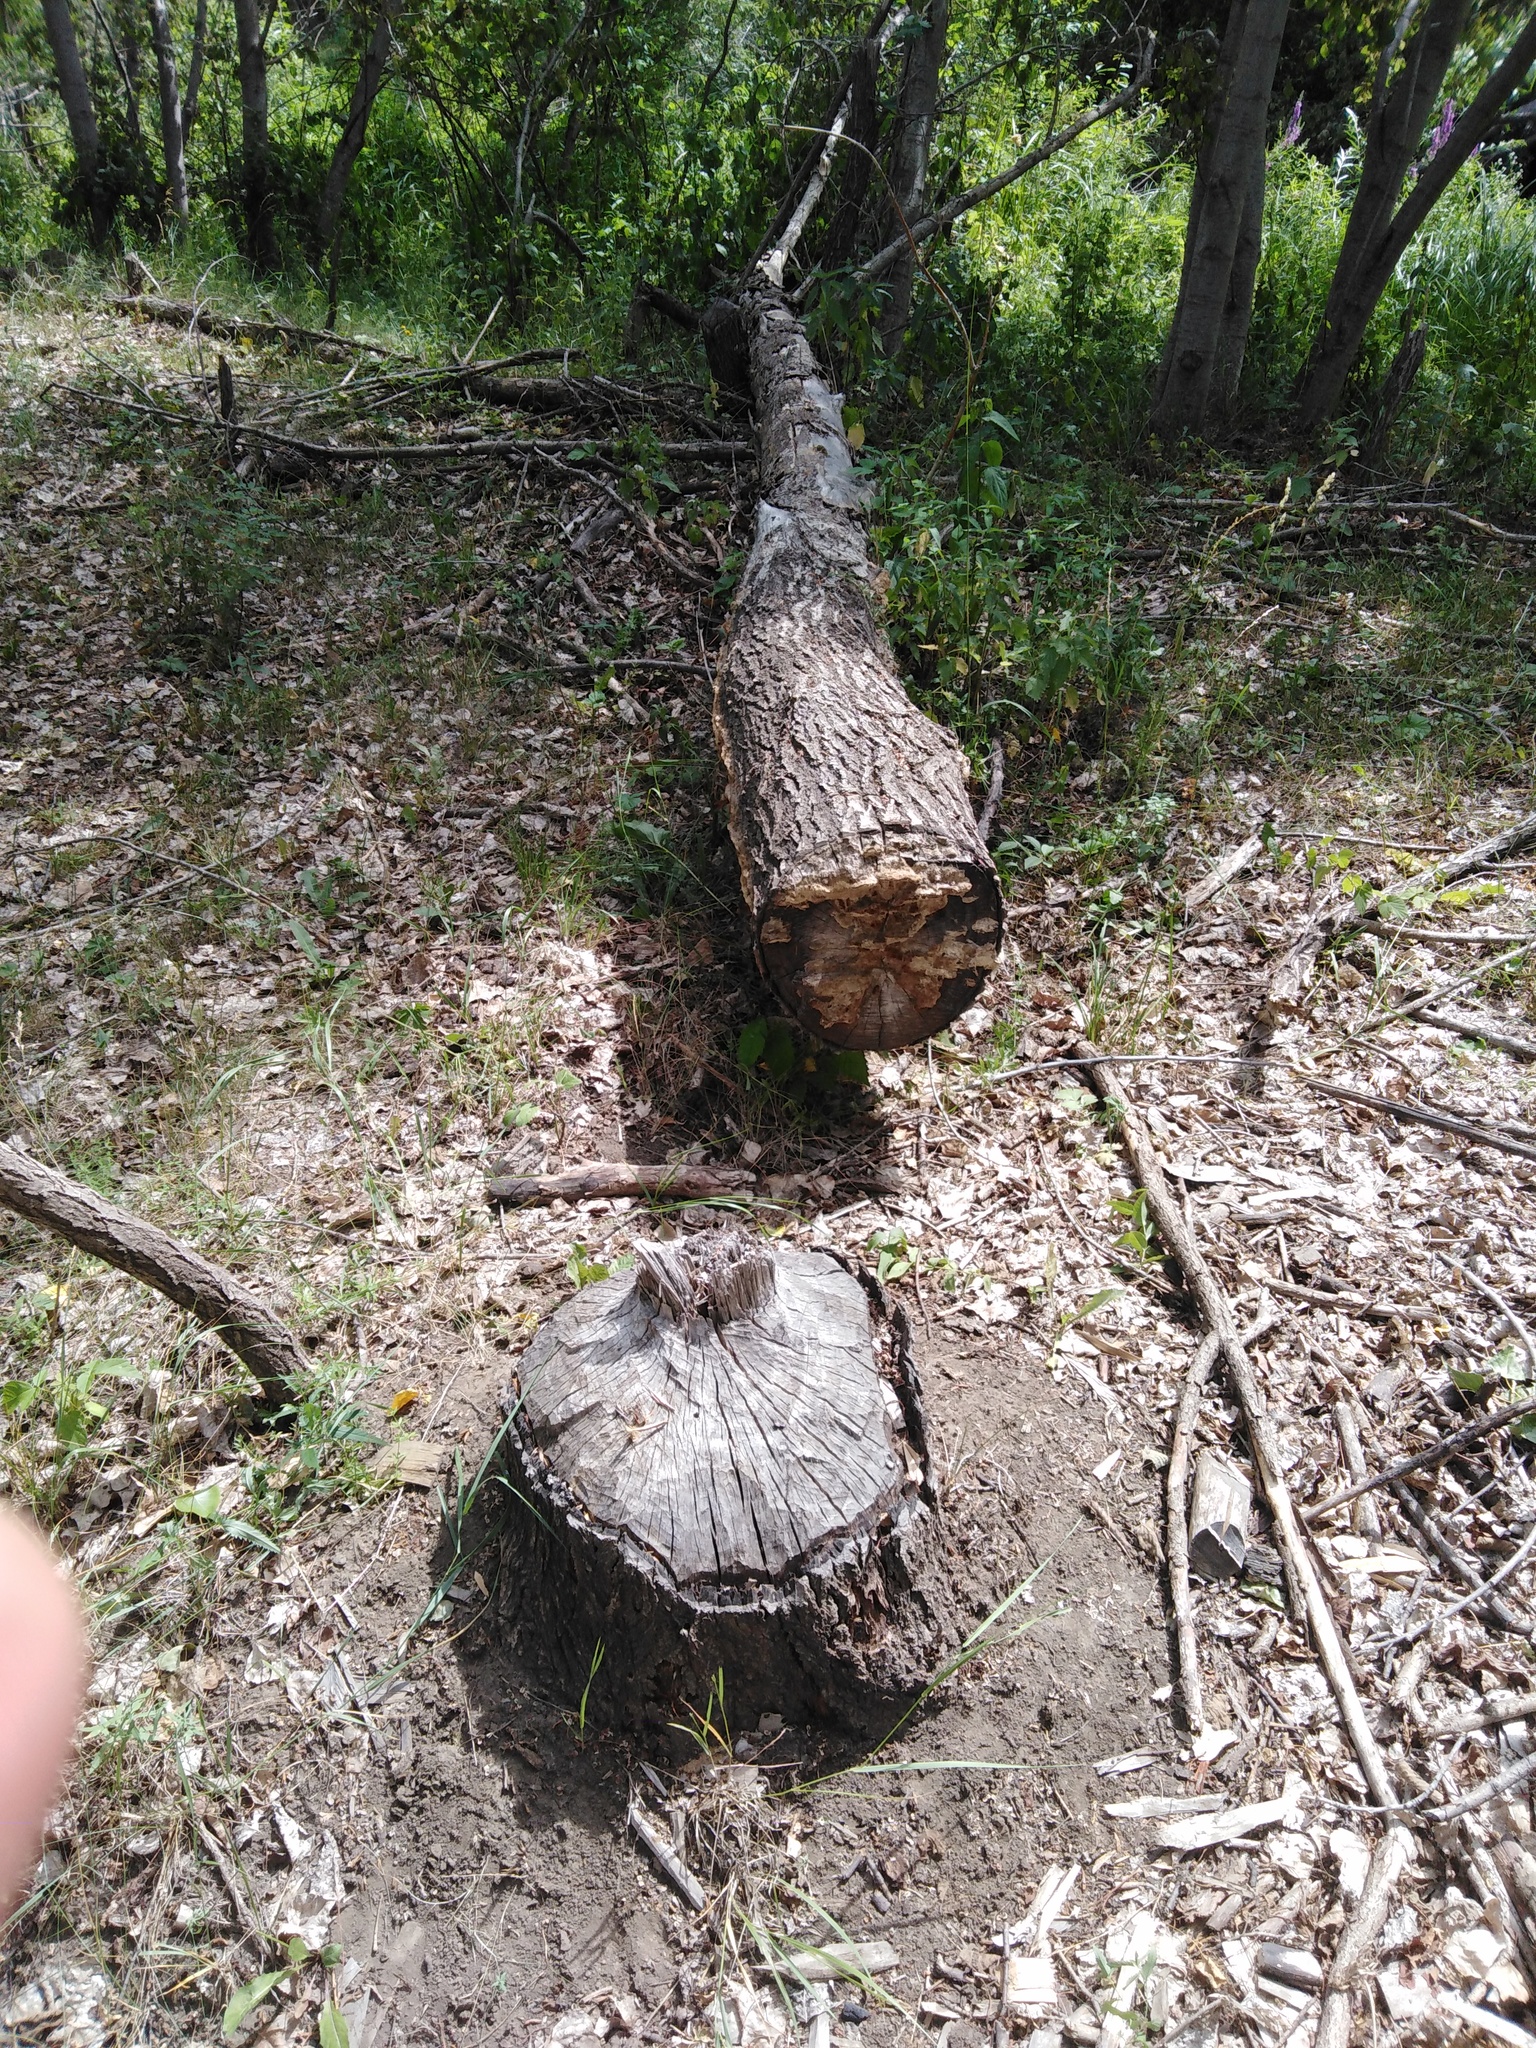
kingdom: Animalia
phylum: Chordata
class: Mammalia
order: Rodentia
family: Castoridae
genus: Castor
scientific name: Castor fiber
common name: Eurasian beaver
